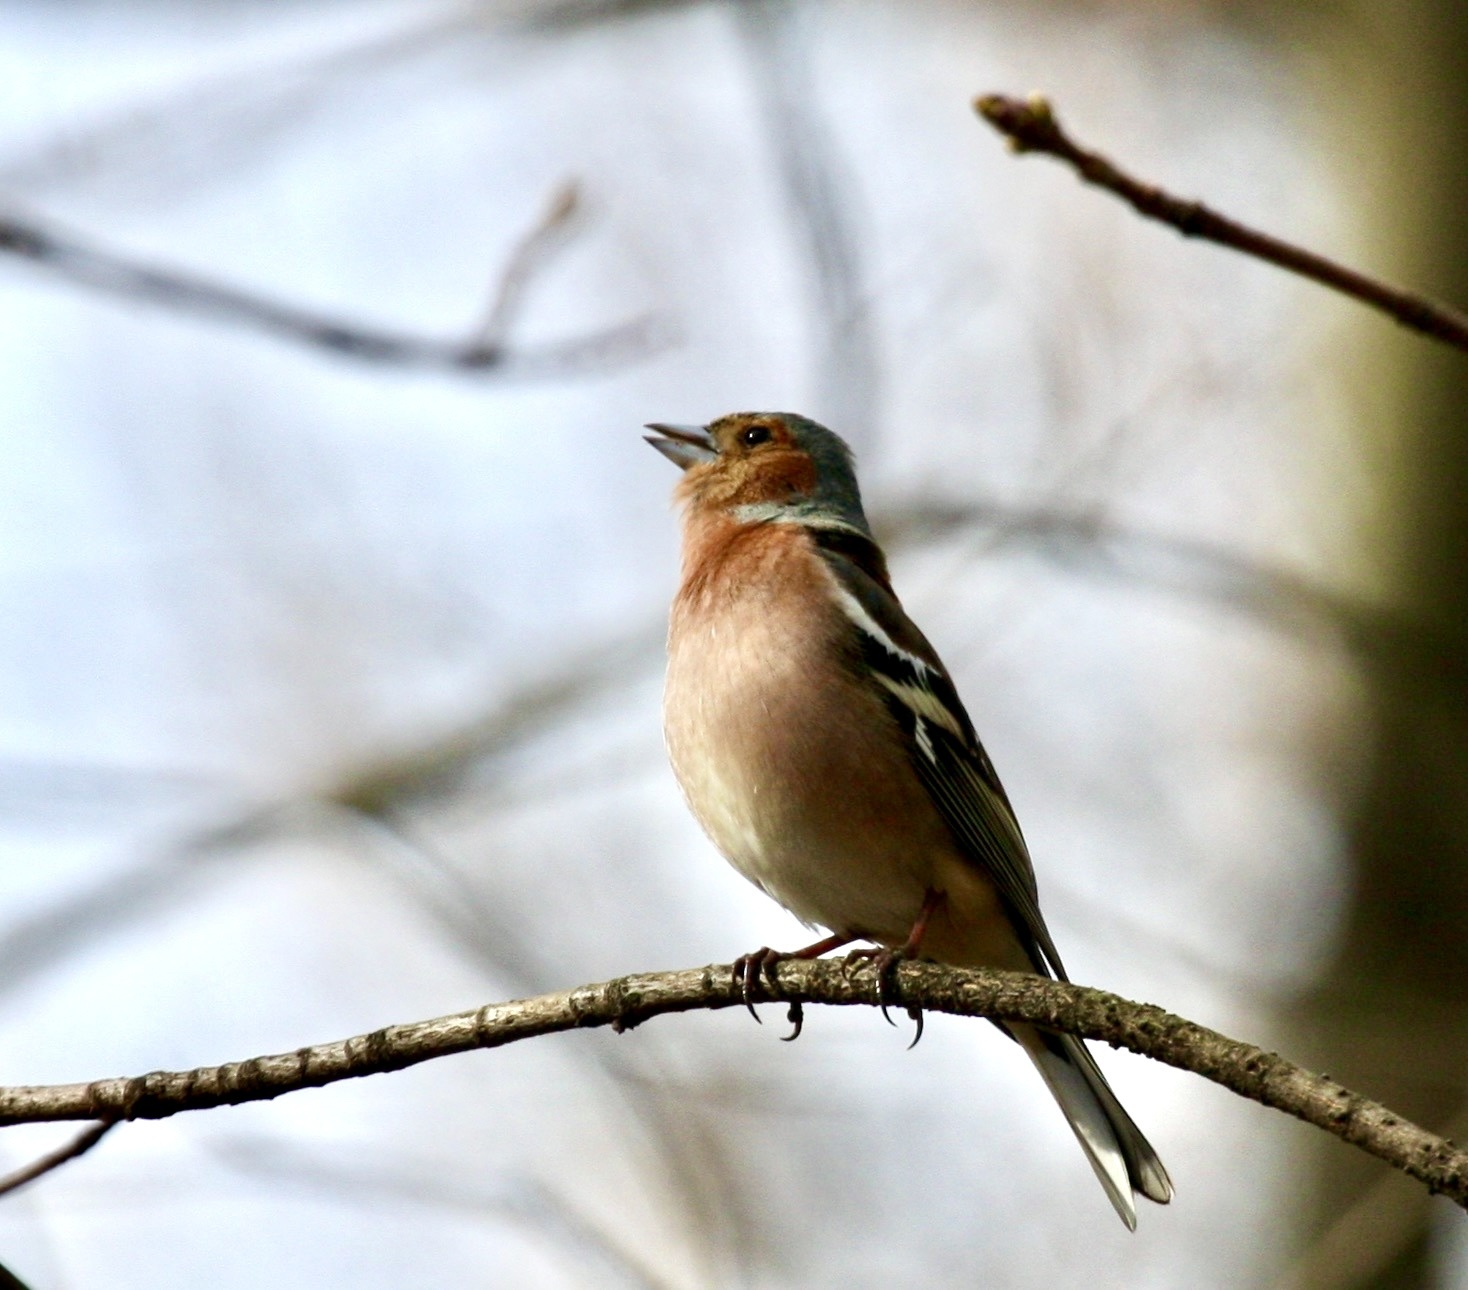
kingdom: Animalia
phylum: Chordata
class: Aves
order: Passeriformes
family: Fringillidae
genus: Fringilla
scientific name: Fringilla coelebs
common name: Common chaffinch
